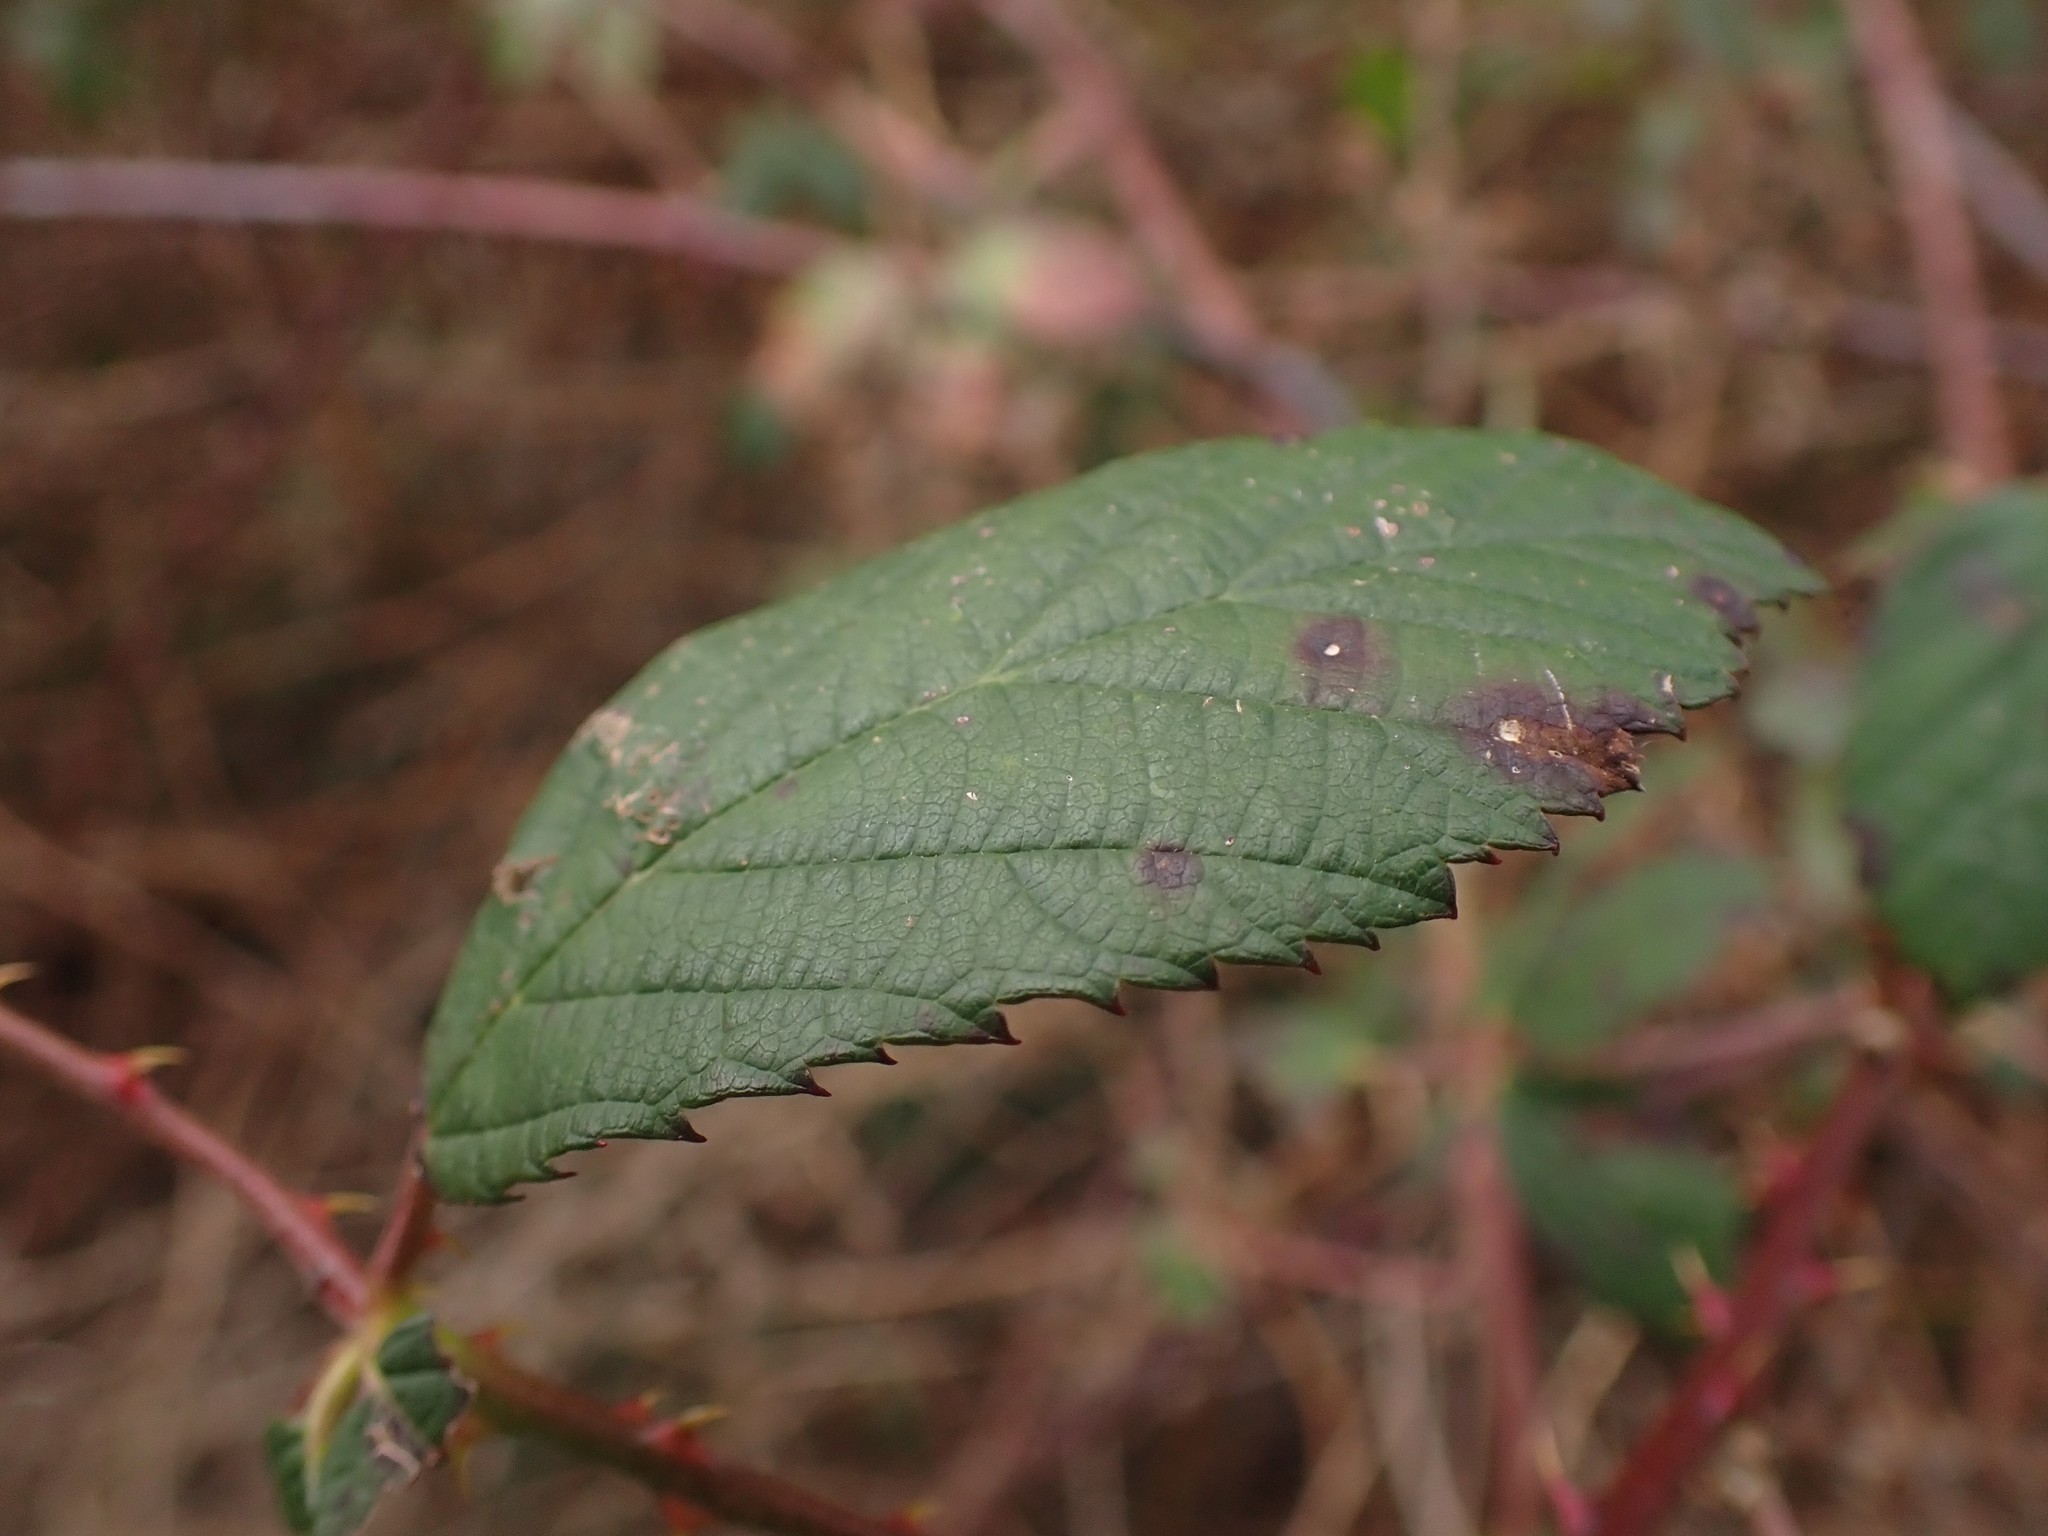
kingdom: Fungi
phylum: Basidiomycota
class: Pucciniomycetes
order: Pucciniales
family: Phragmidiaceae
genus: Phragmidium
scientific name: Phragmidium violaceum
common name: Violet bramble rust
